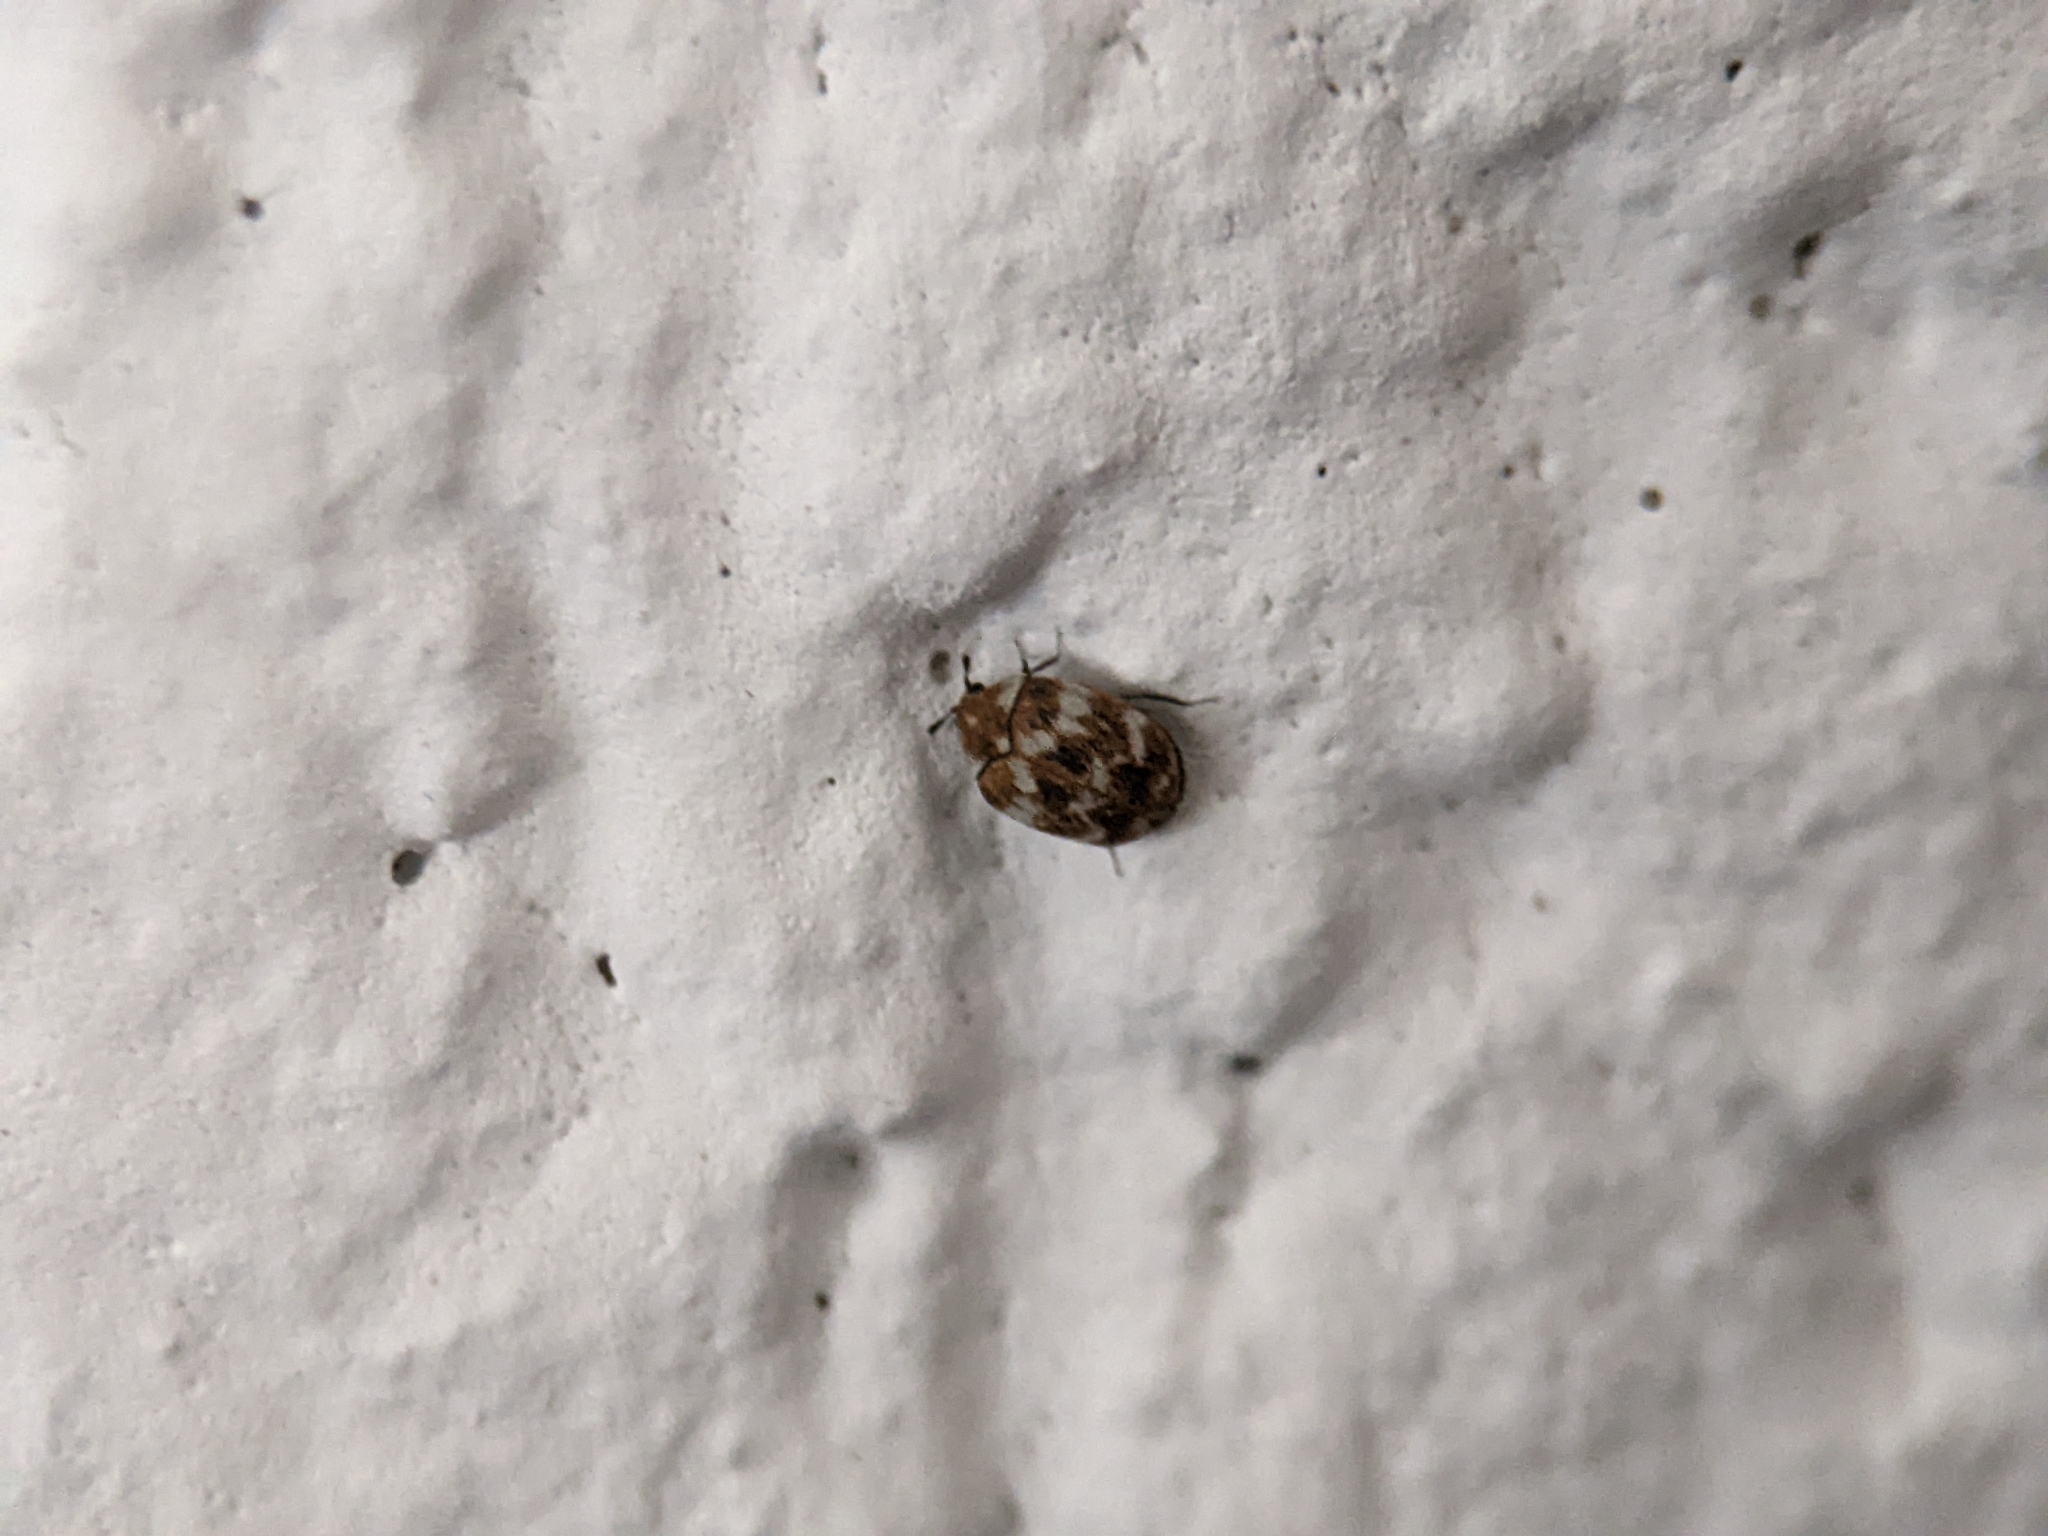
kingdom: Animalia
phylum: Arthropoda
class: Insecta
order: Coleoptera
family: Dermestidae
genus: Anthrenus
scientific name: Anthrenus verbasci
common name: Varied carpet beetle
